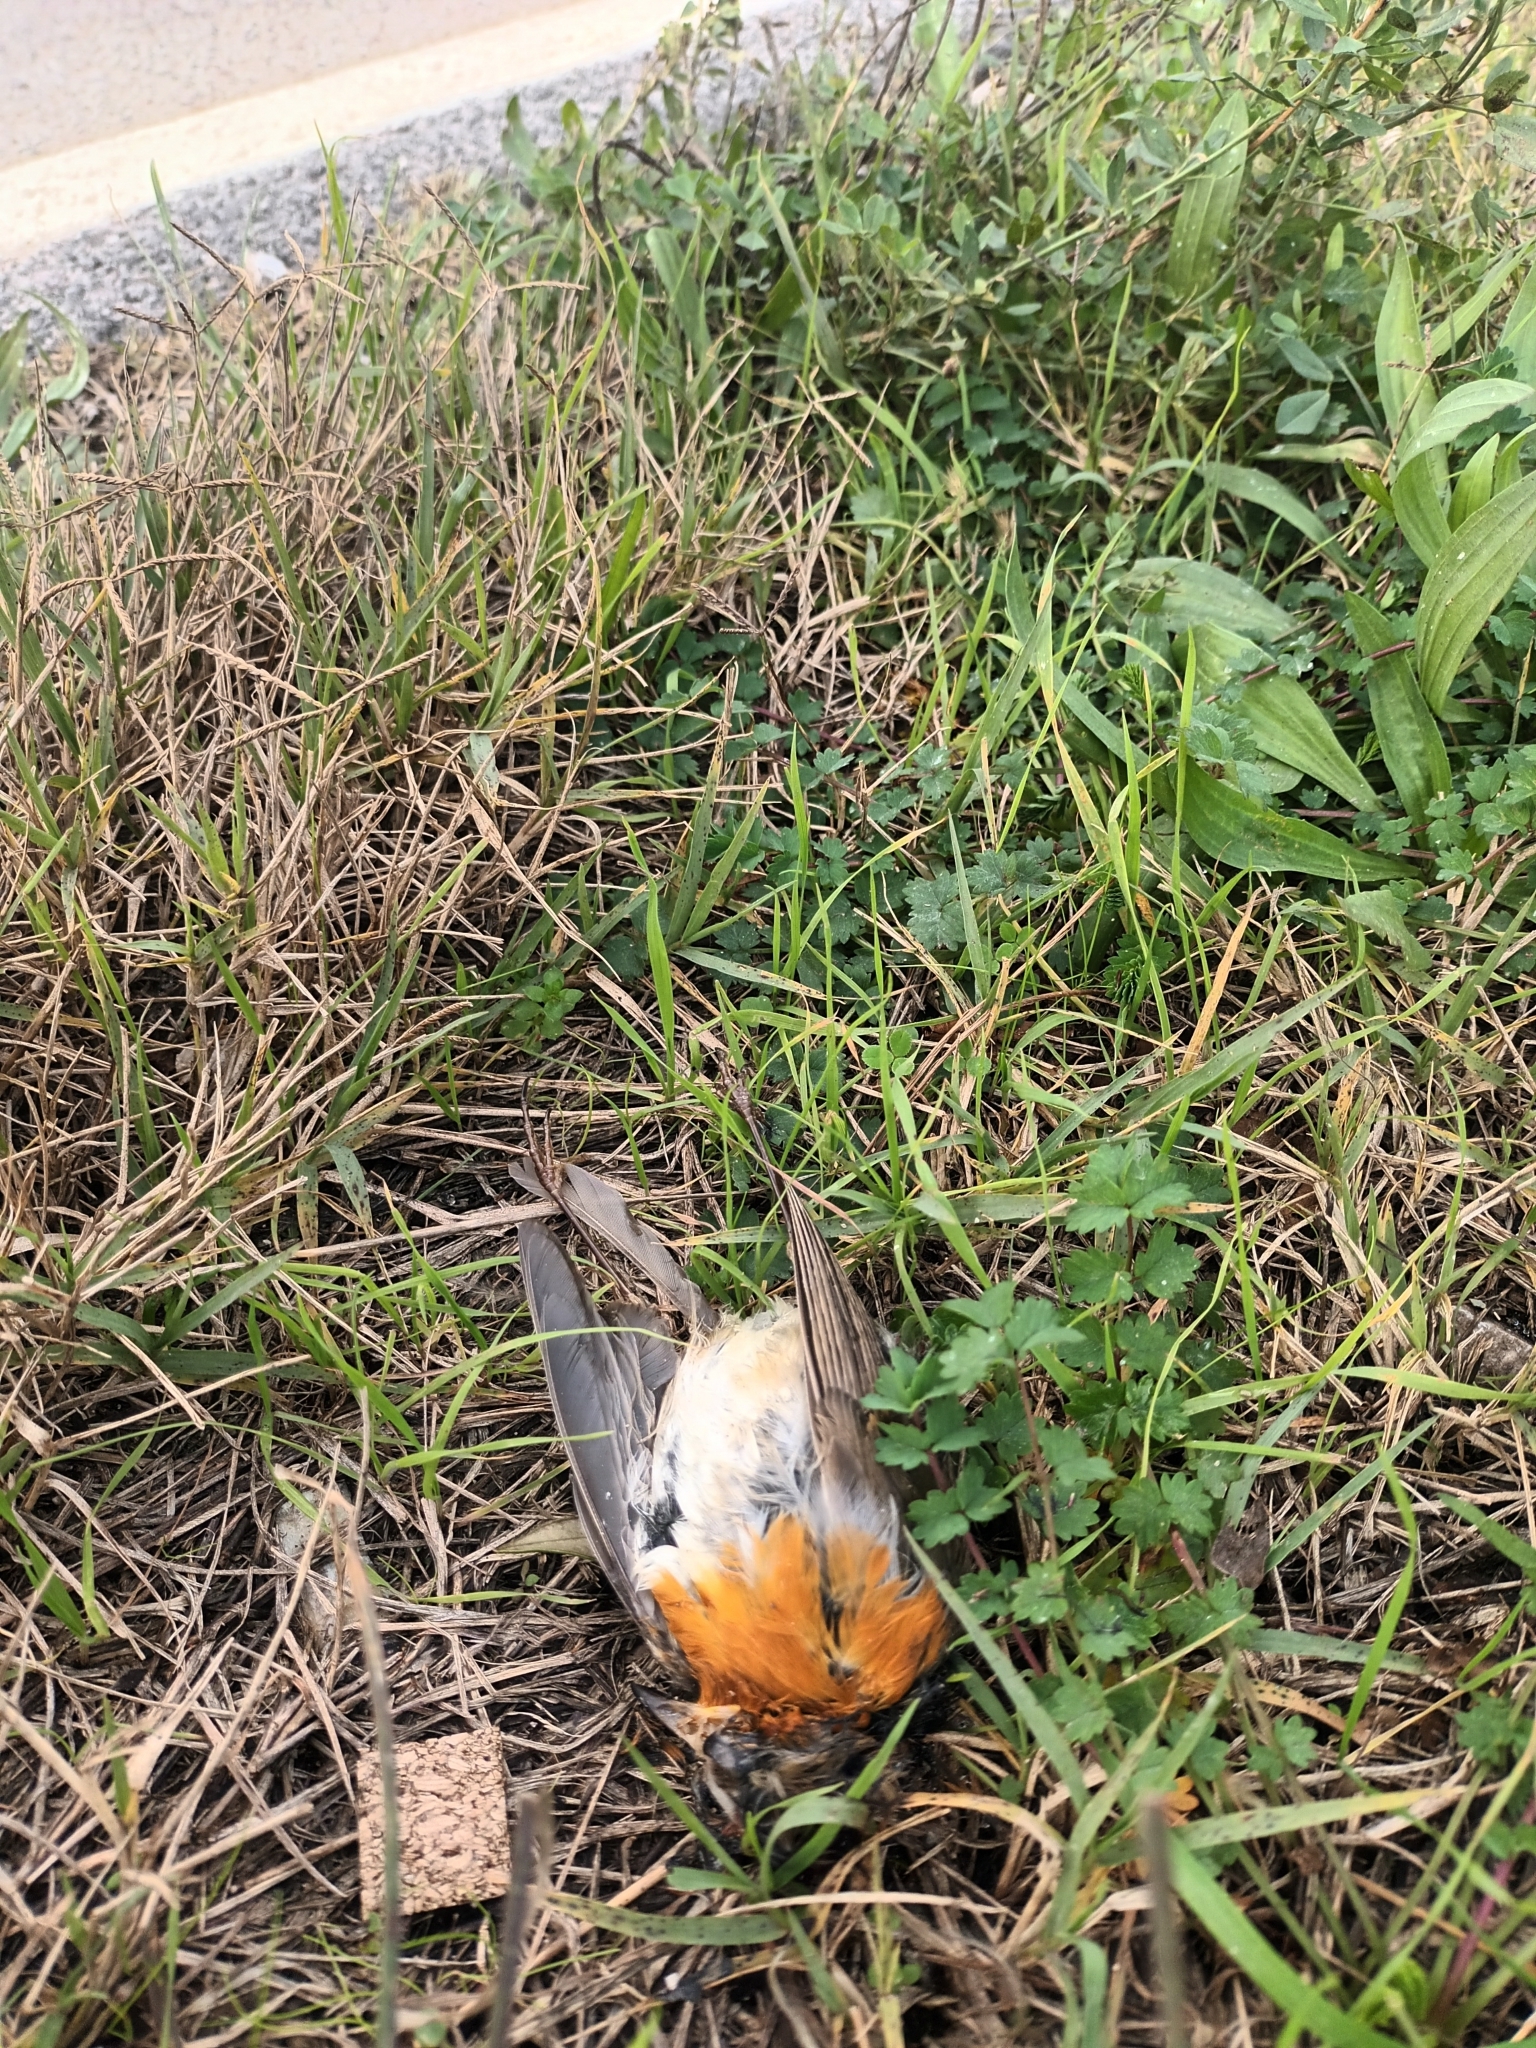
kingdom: Animalia
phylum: Chordata
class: Aves
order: Passeriformes
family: Muscicapidae
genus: Erithacus
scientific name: Erithacus rubecula
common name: European robin
